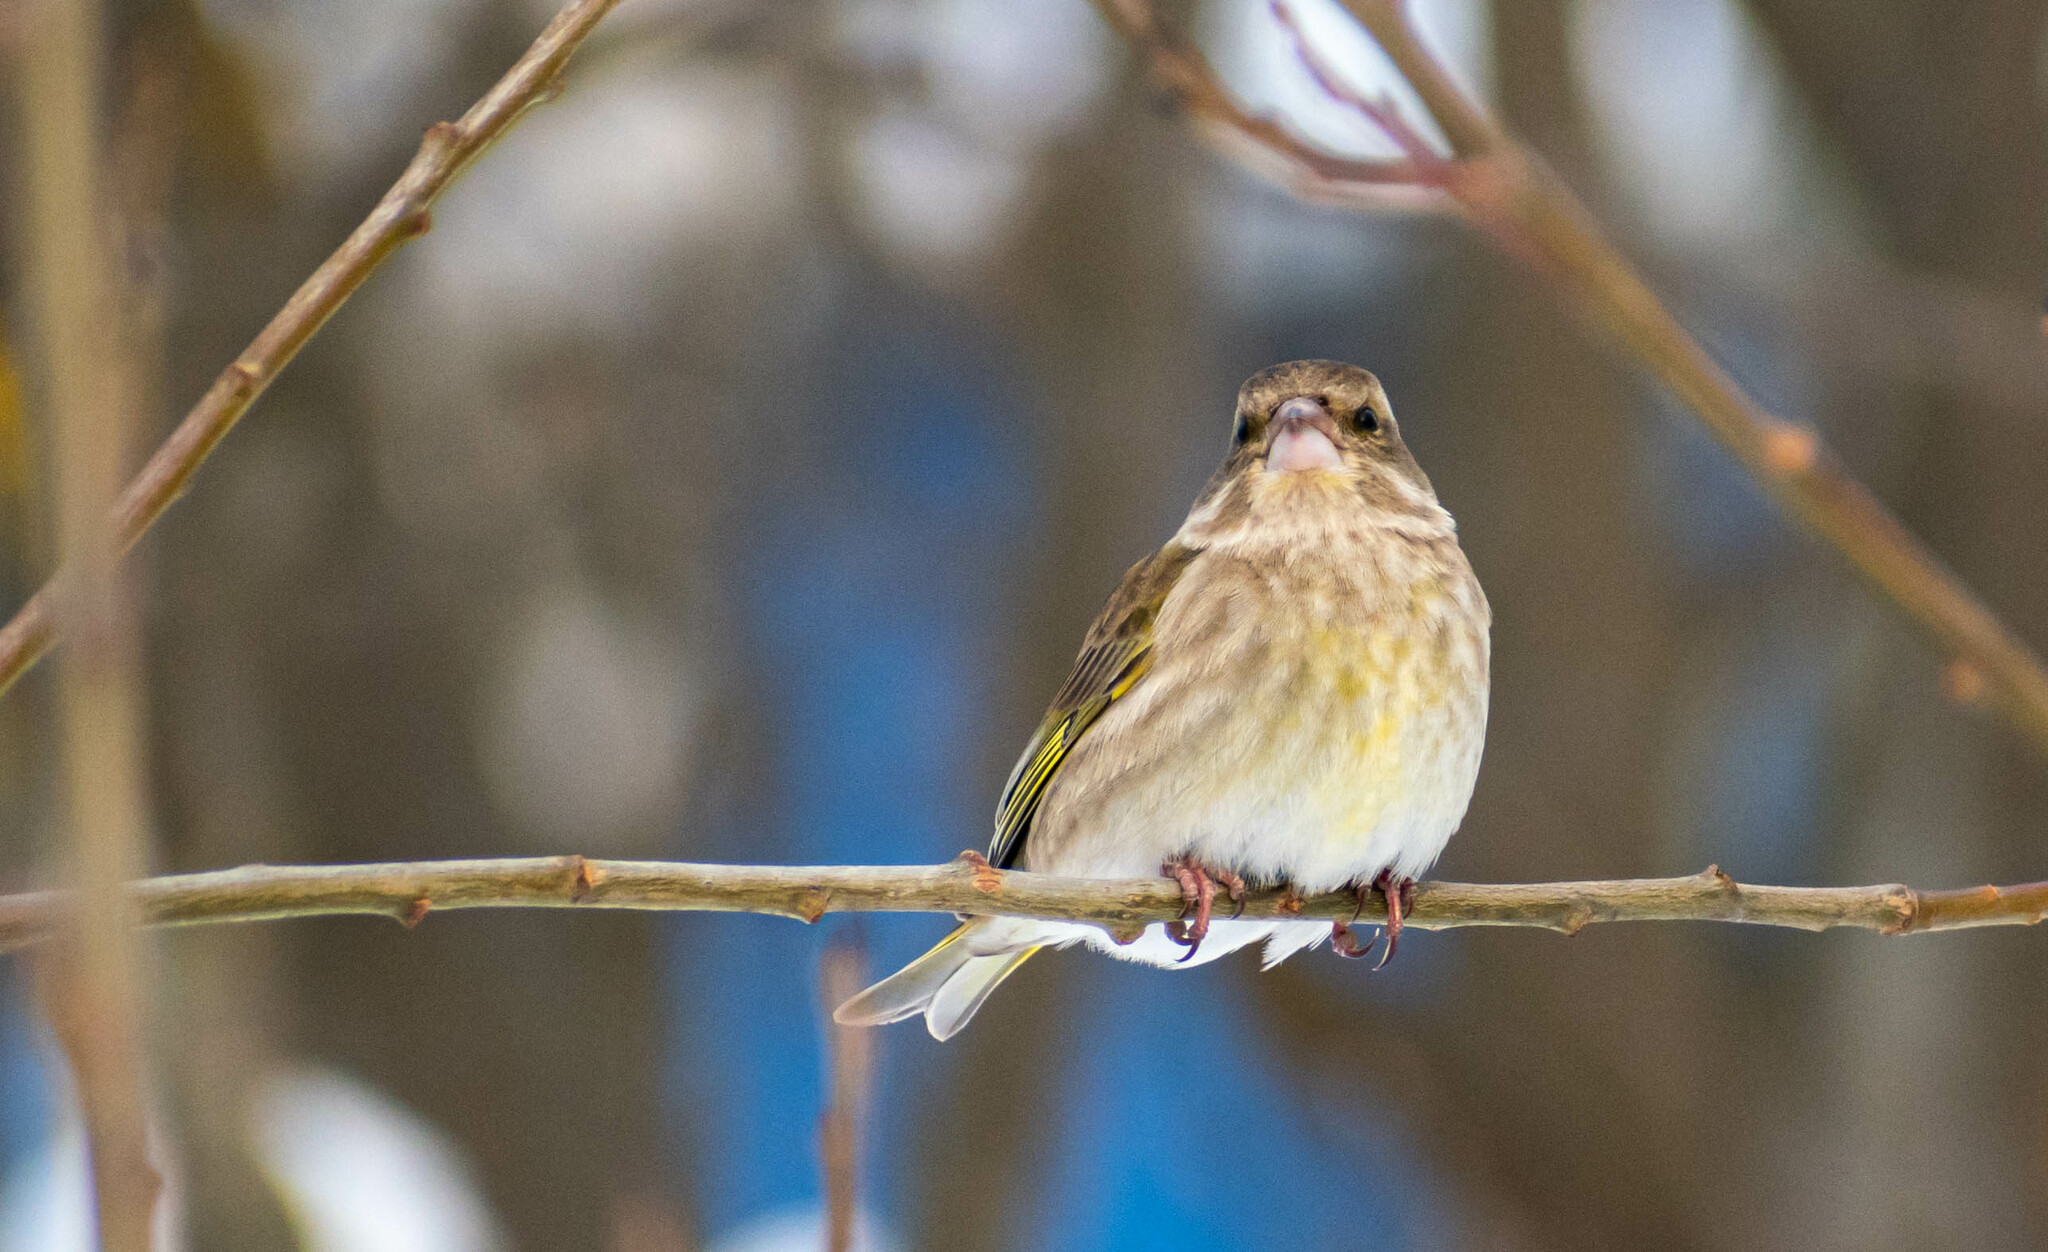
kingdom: Plantae
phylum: Tracheophyta
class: Liliopsida
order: Poales
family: Poaceae
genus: Chloris
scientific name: Chloris chloris
